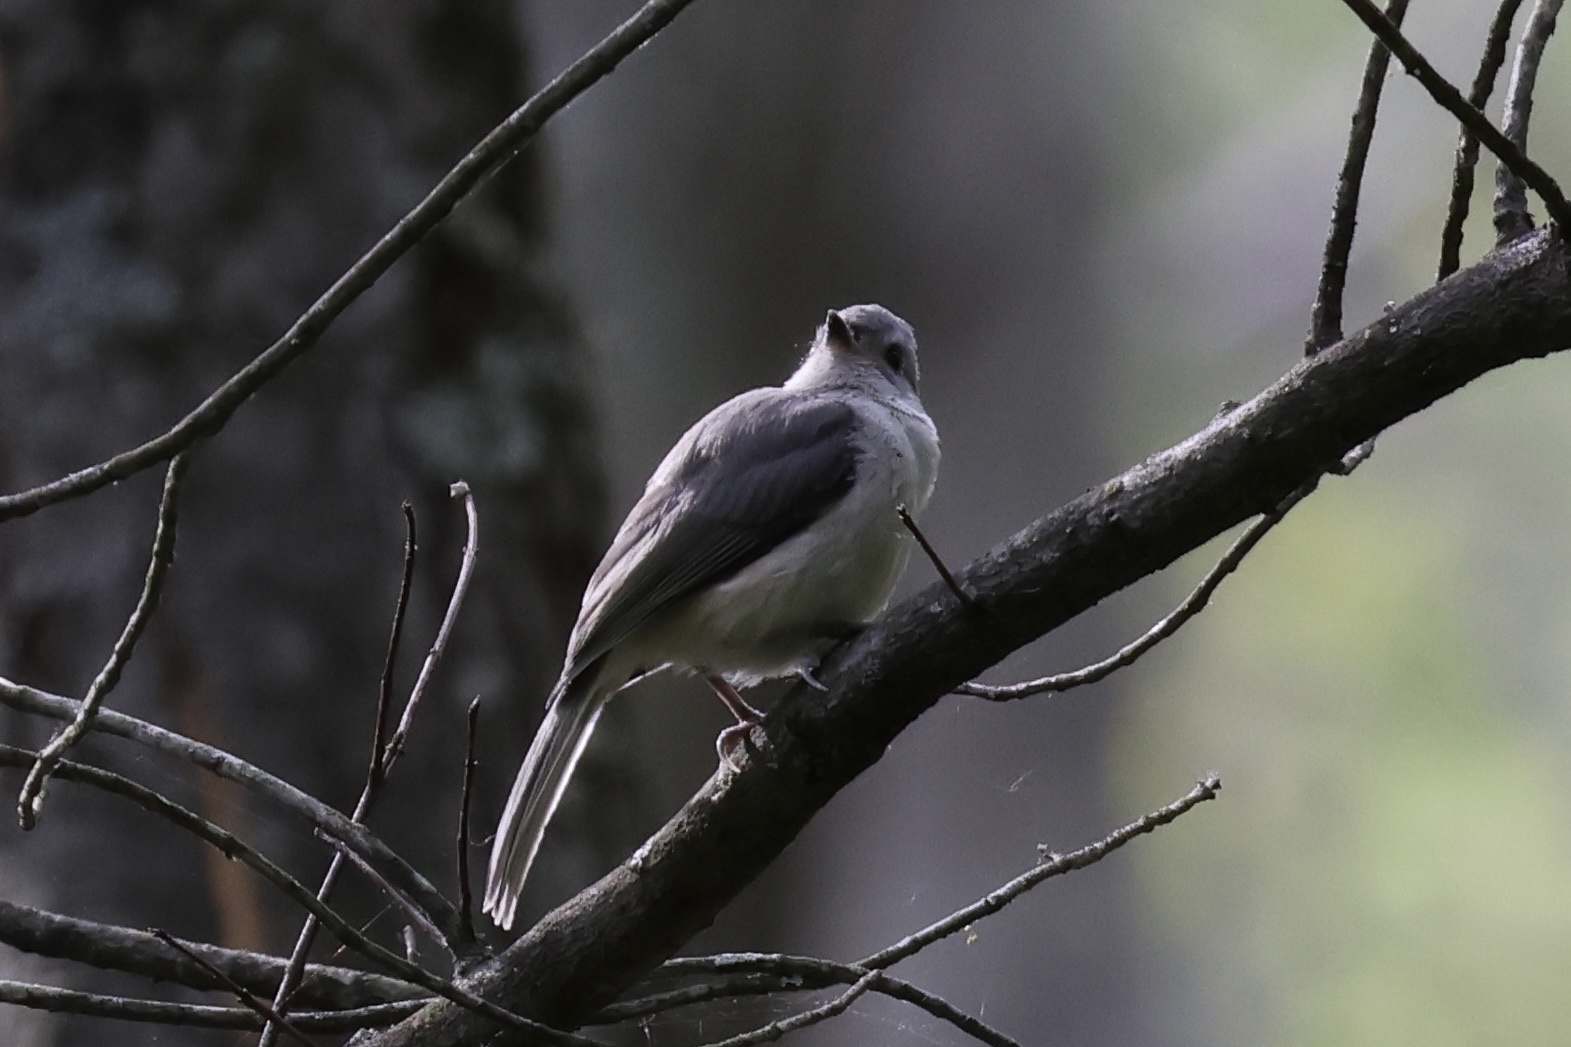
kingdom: Animalia
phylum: Chordata
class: Aves
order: Passeriformes
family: Paridae
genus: Baeolophus
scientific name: Baeolophus bicolor
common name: Tufted titmouse
